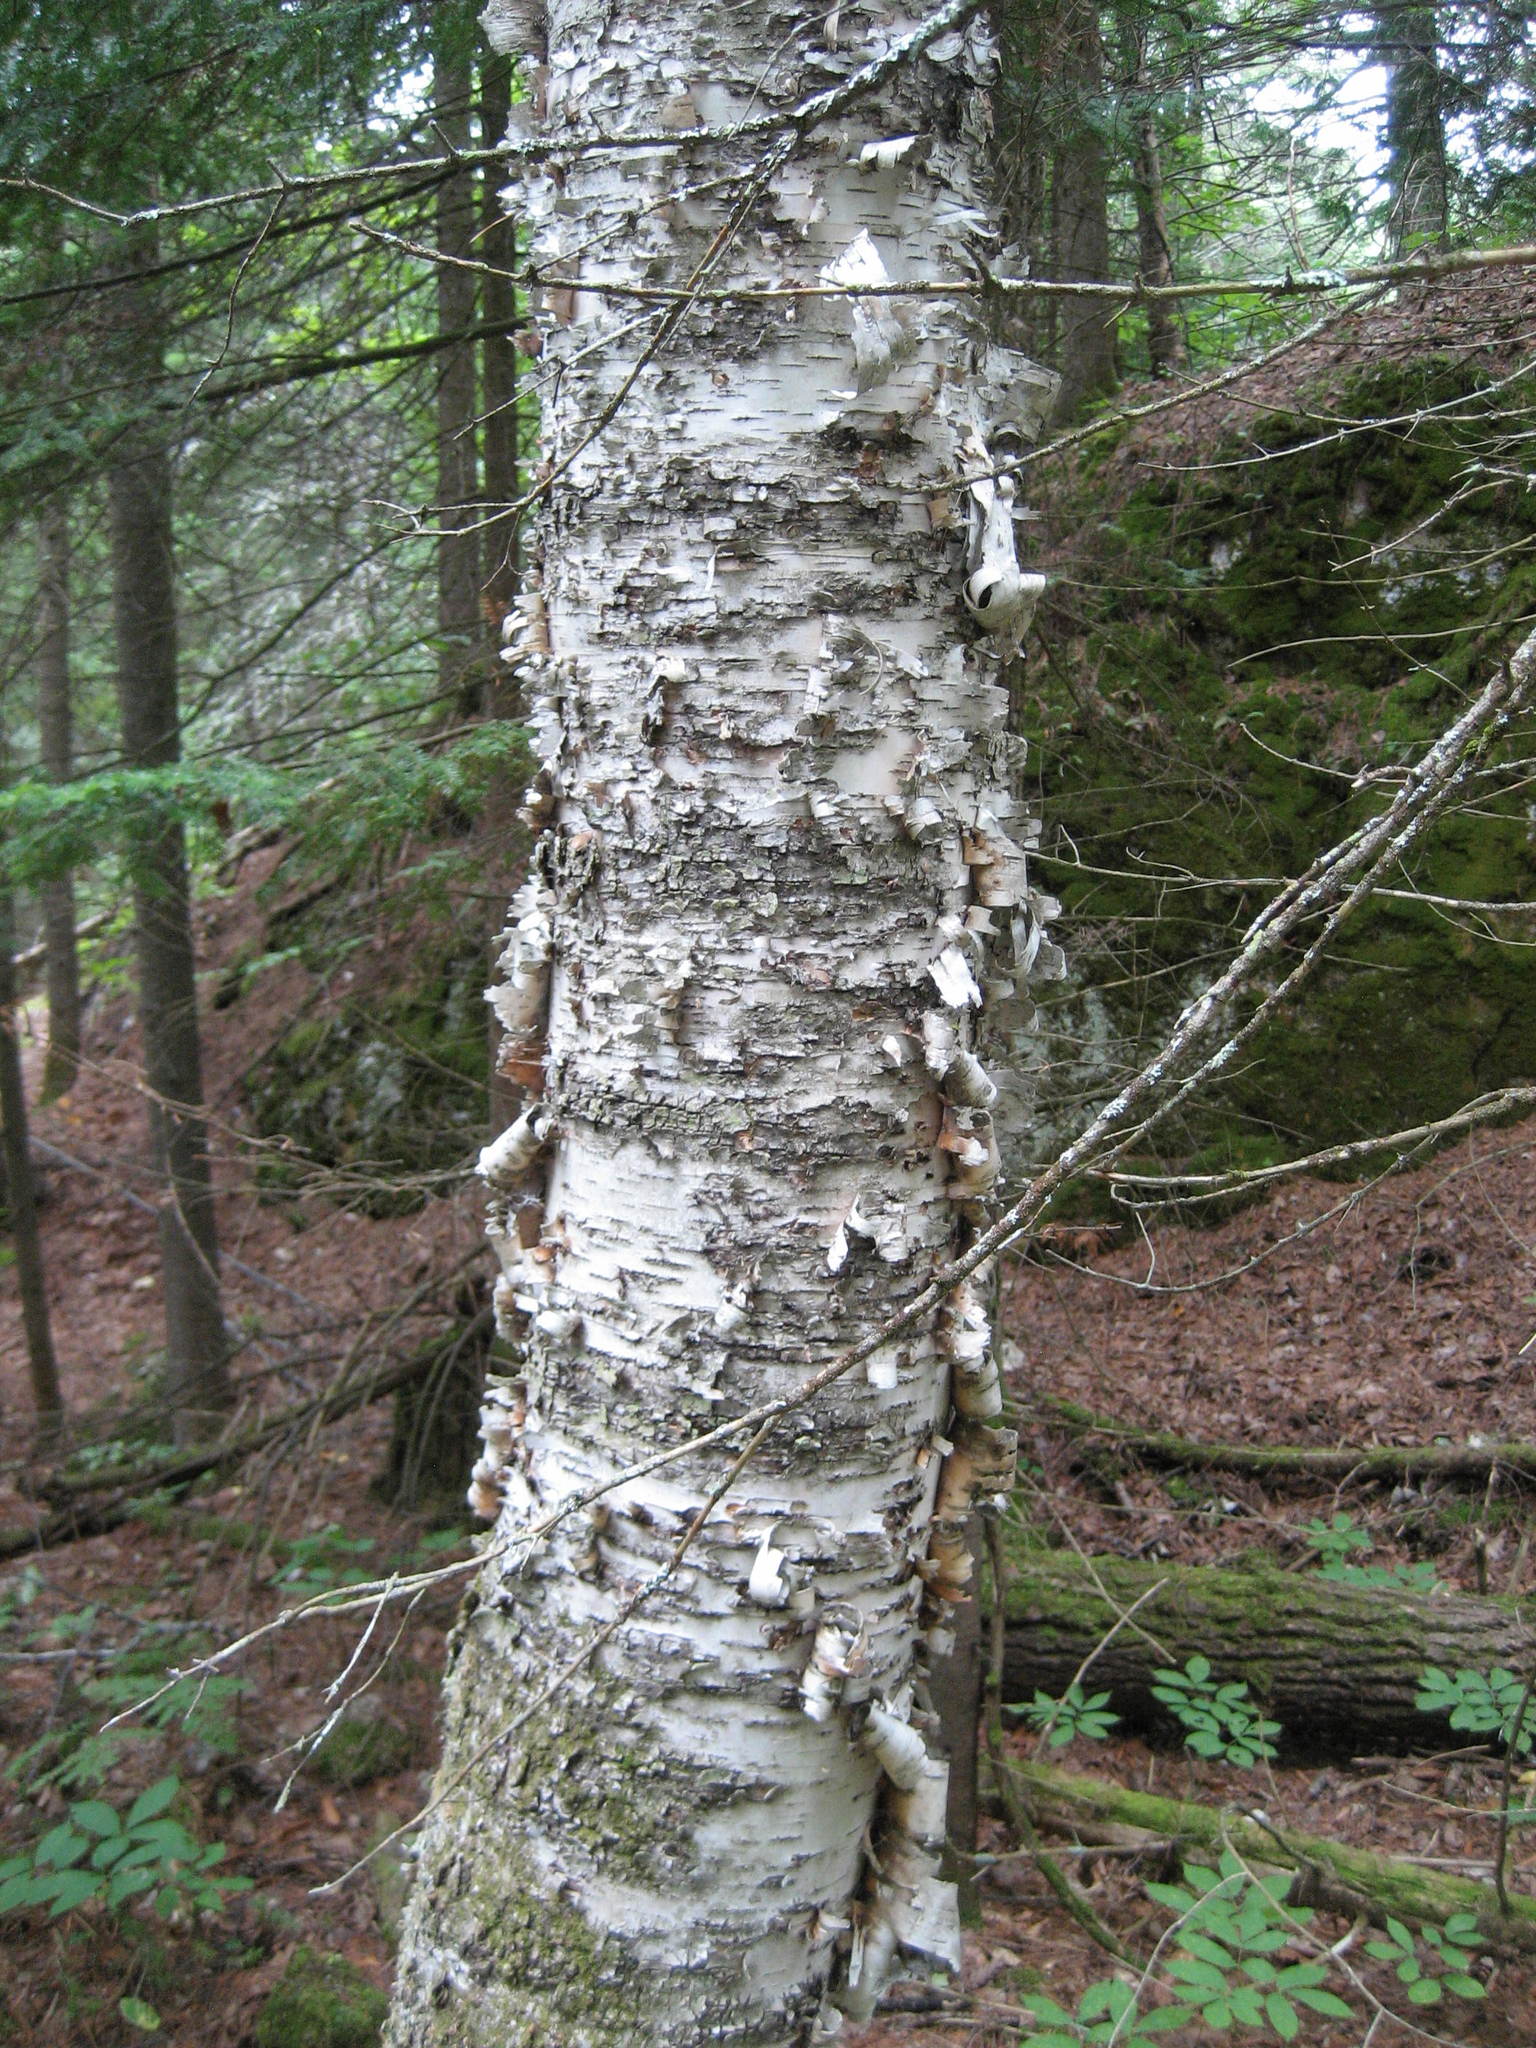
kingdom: Plantae
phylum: Tracheophyta
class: Magnoliopsida
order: Fagales
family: Betulaceae
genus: Betula
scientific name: Betula papyrifera
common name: Paper birch
